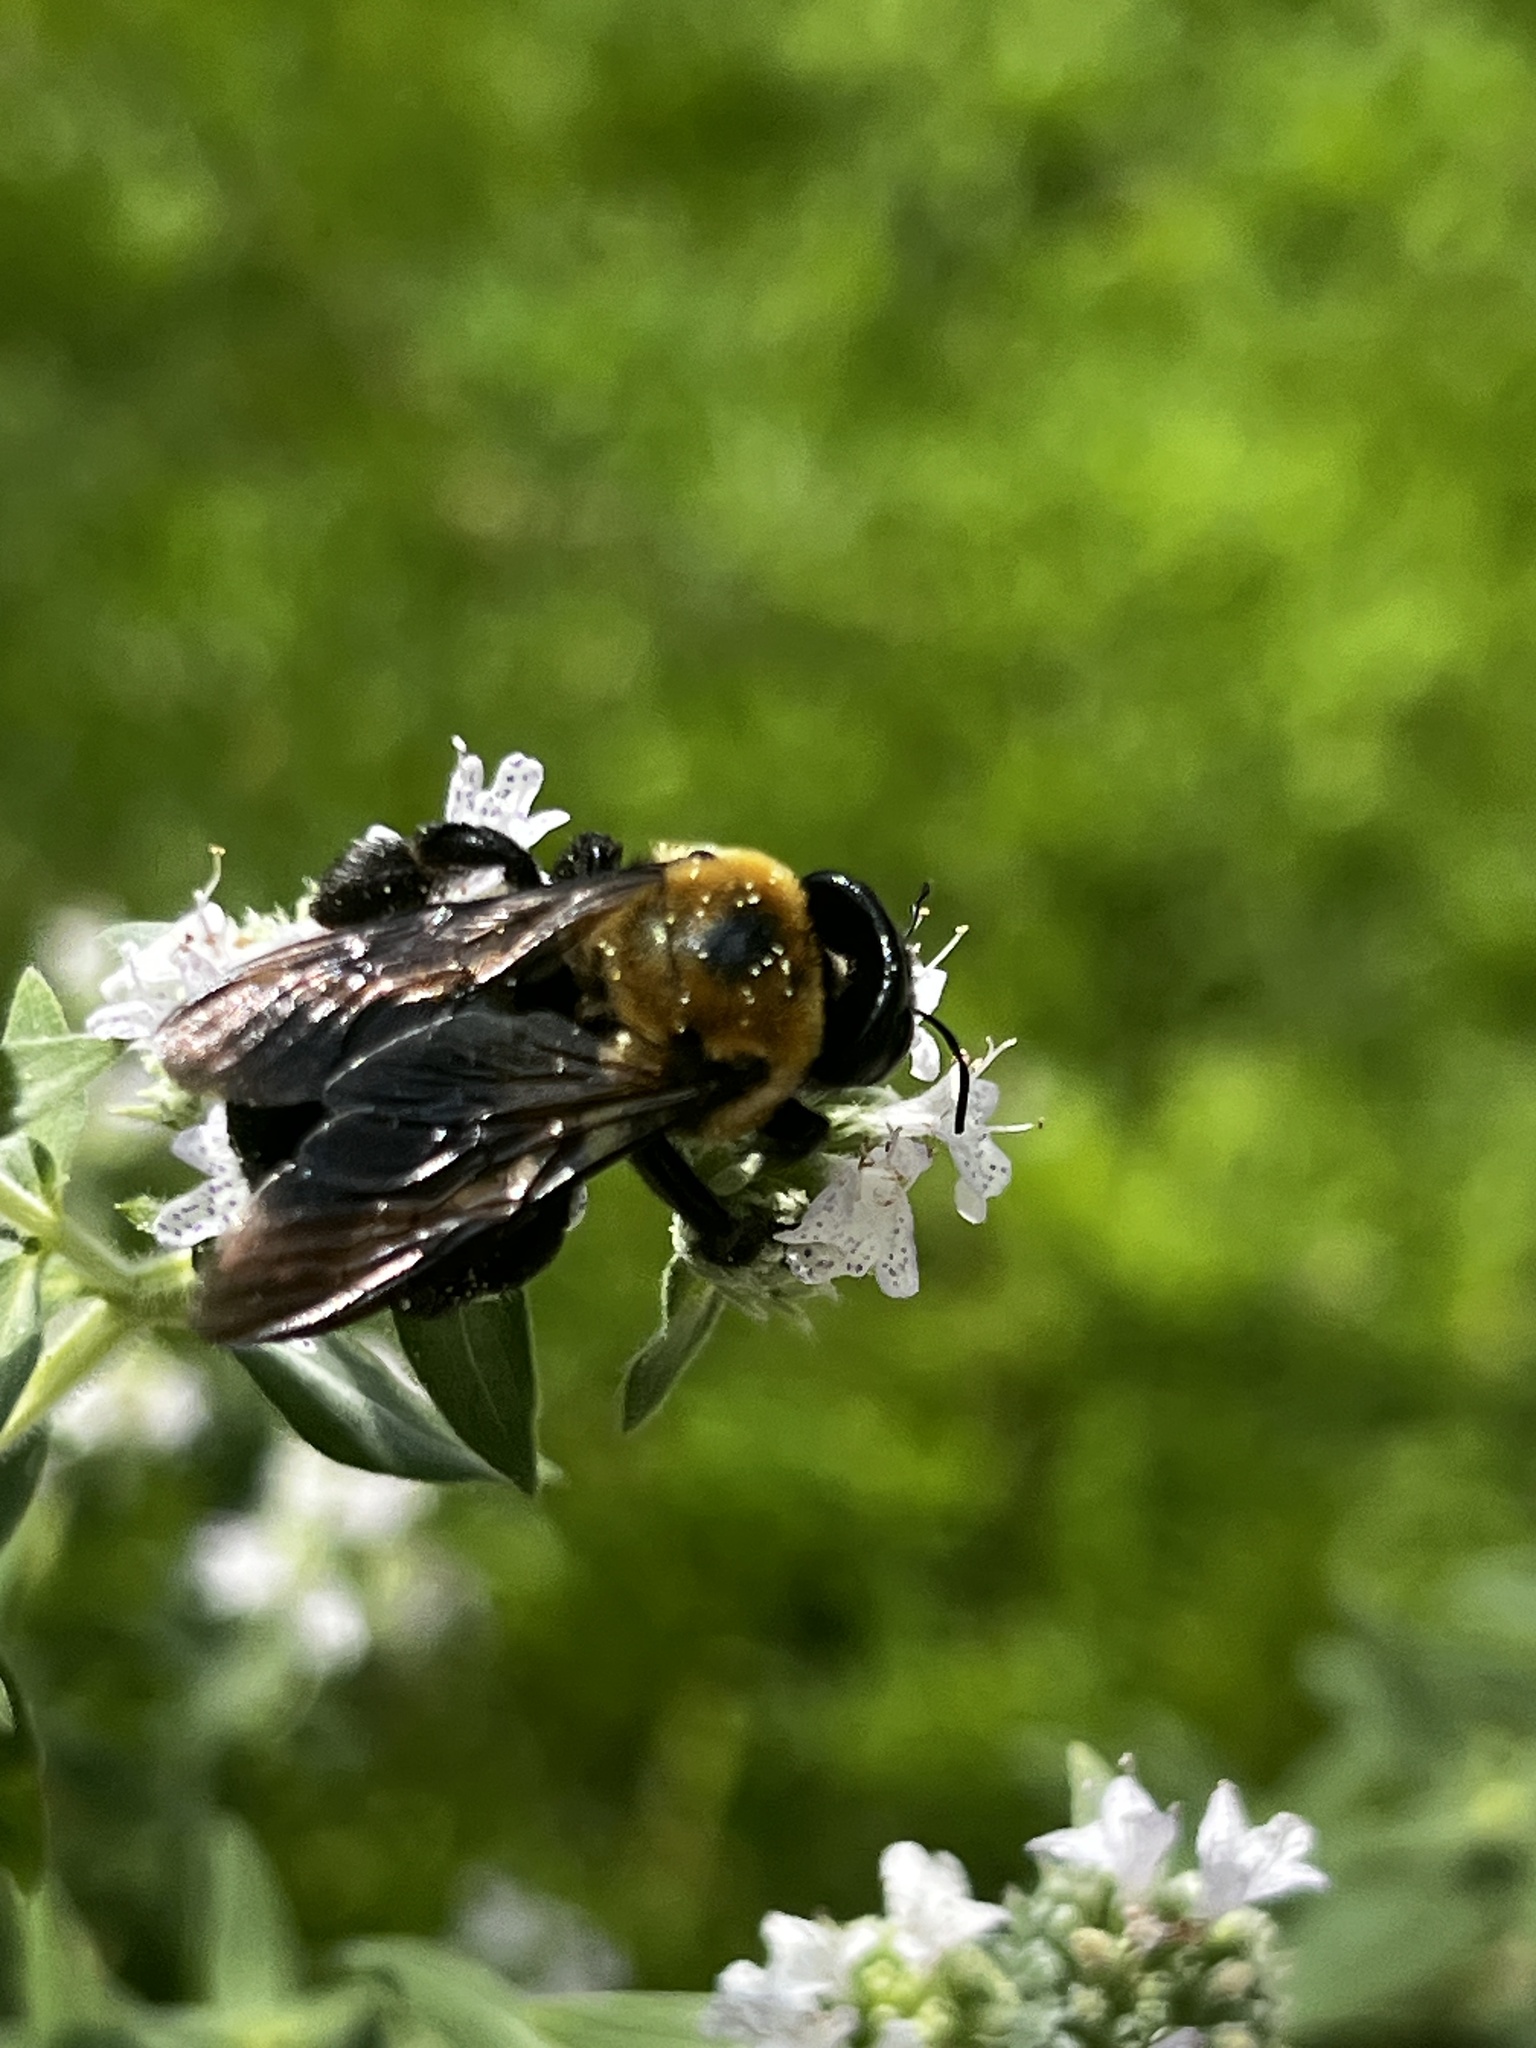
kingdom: Animalia
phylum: Arthropoda
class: Insecta
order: Hymenoptera
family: Apidae
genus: Xylocopa
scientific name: Xylocopa virginica
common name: Carpenter bee
